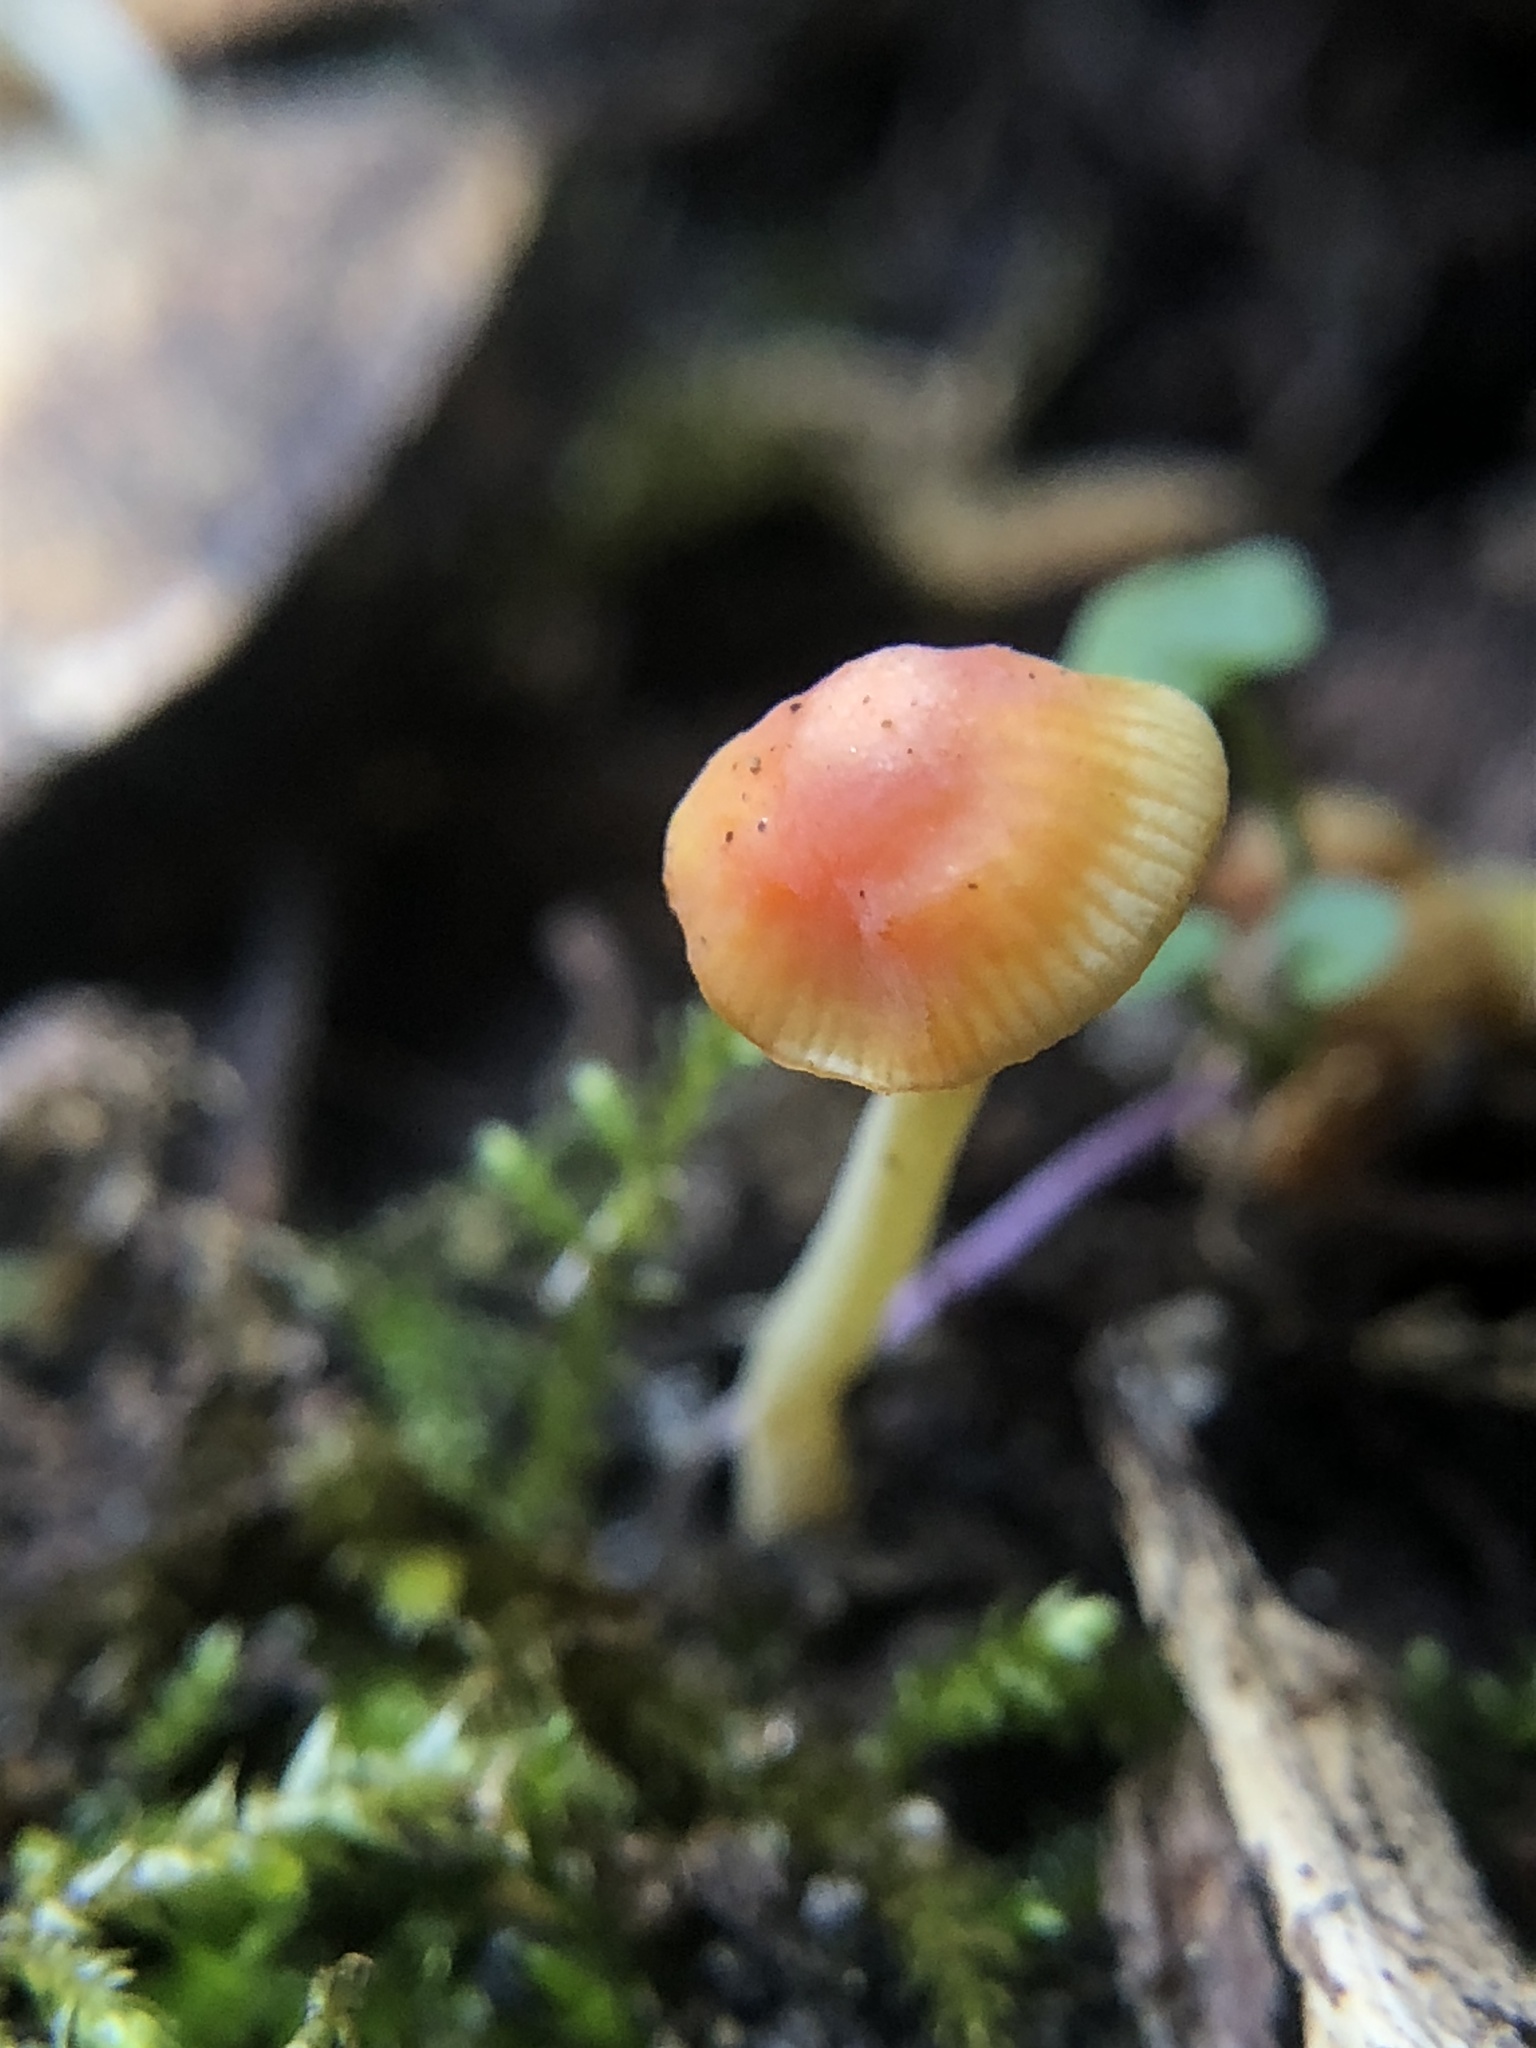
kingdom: Fungi
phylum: Basidiomycota
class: Agaricomycetes
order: Agaricales
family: Mycenaceae
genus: Mycena
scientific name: Mycena acicula
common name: Orange bonnet
